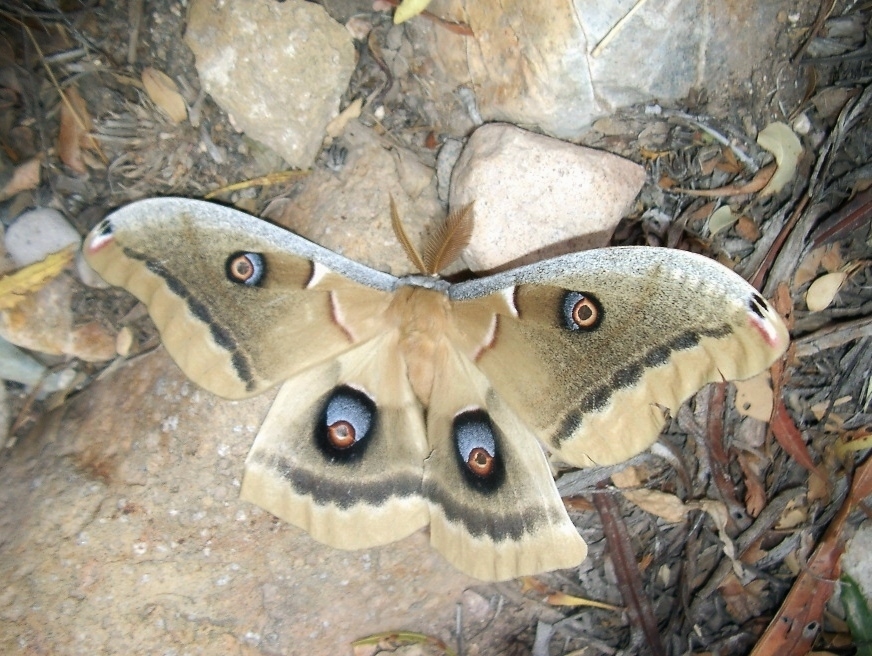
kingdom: Animalia
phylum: Arthropoda
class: Insecta
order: Lepidoptera
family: Saturniidae
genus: Antheraea
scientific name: Antheraea oculea
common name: Arizona polyphemus moth
